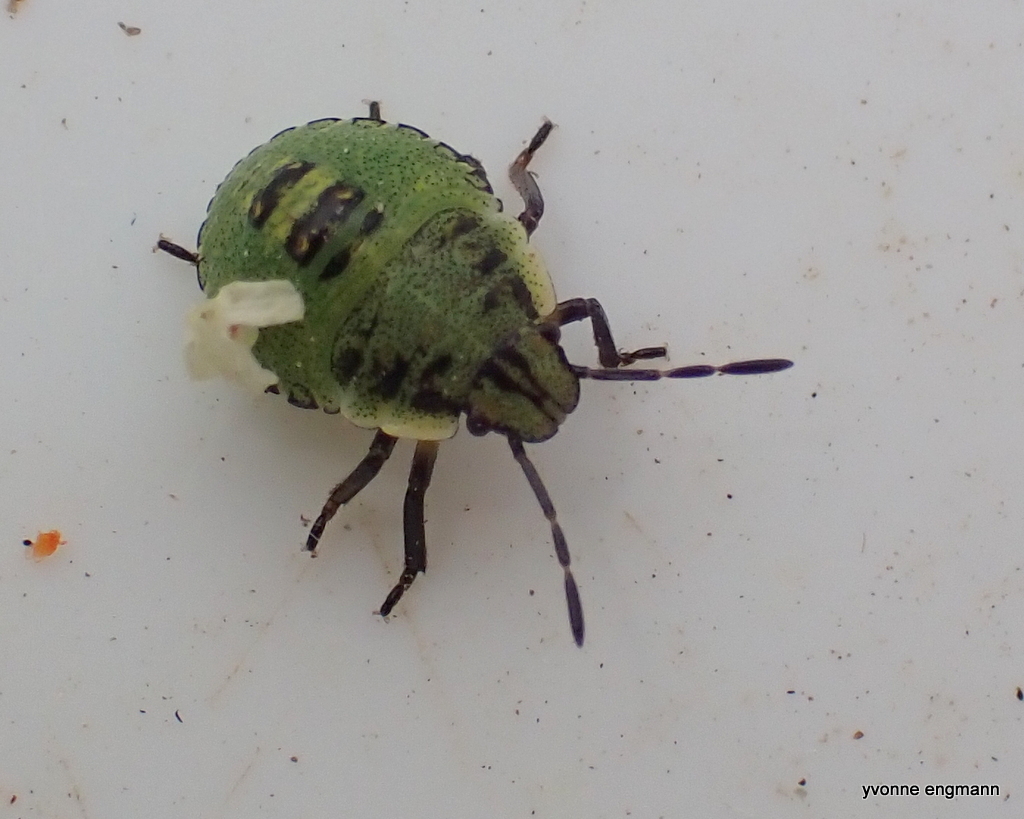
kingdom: Animalia
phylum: Arthropoda
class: Insecta
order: Hemiptera
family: Pentatomidae
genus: Palomena
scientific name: Palomena prasina
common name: Green shieldbug
